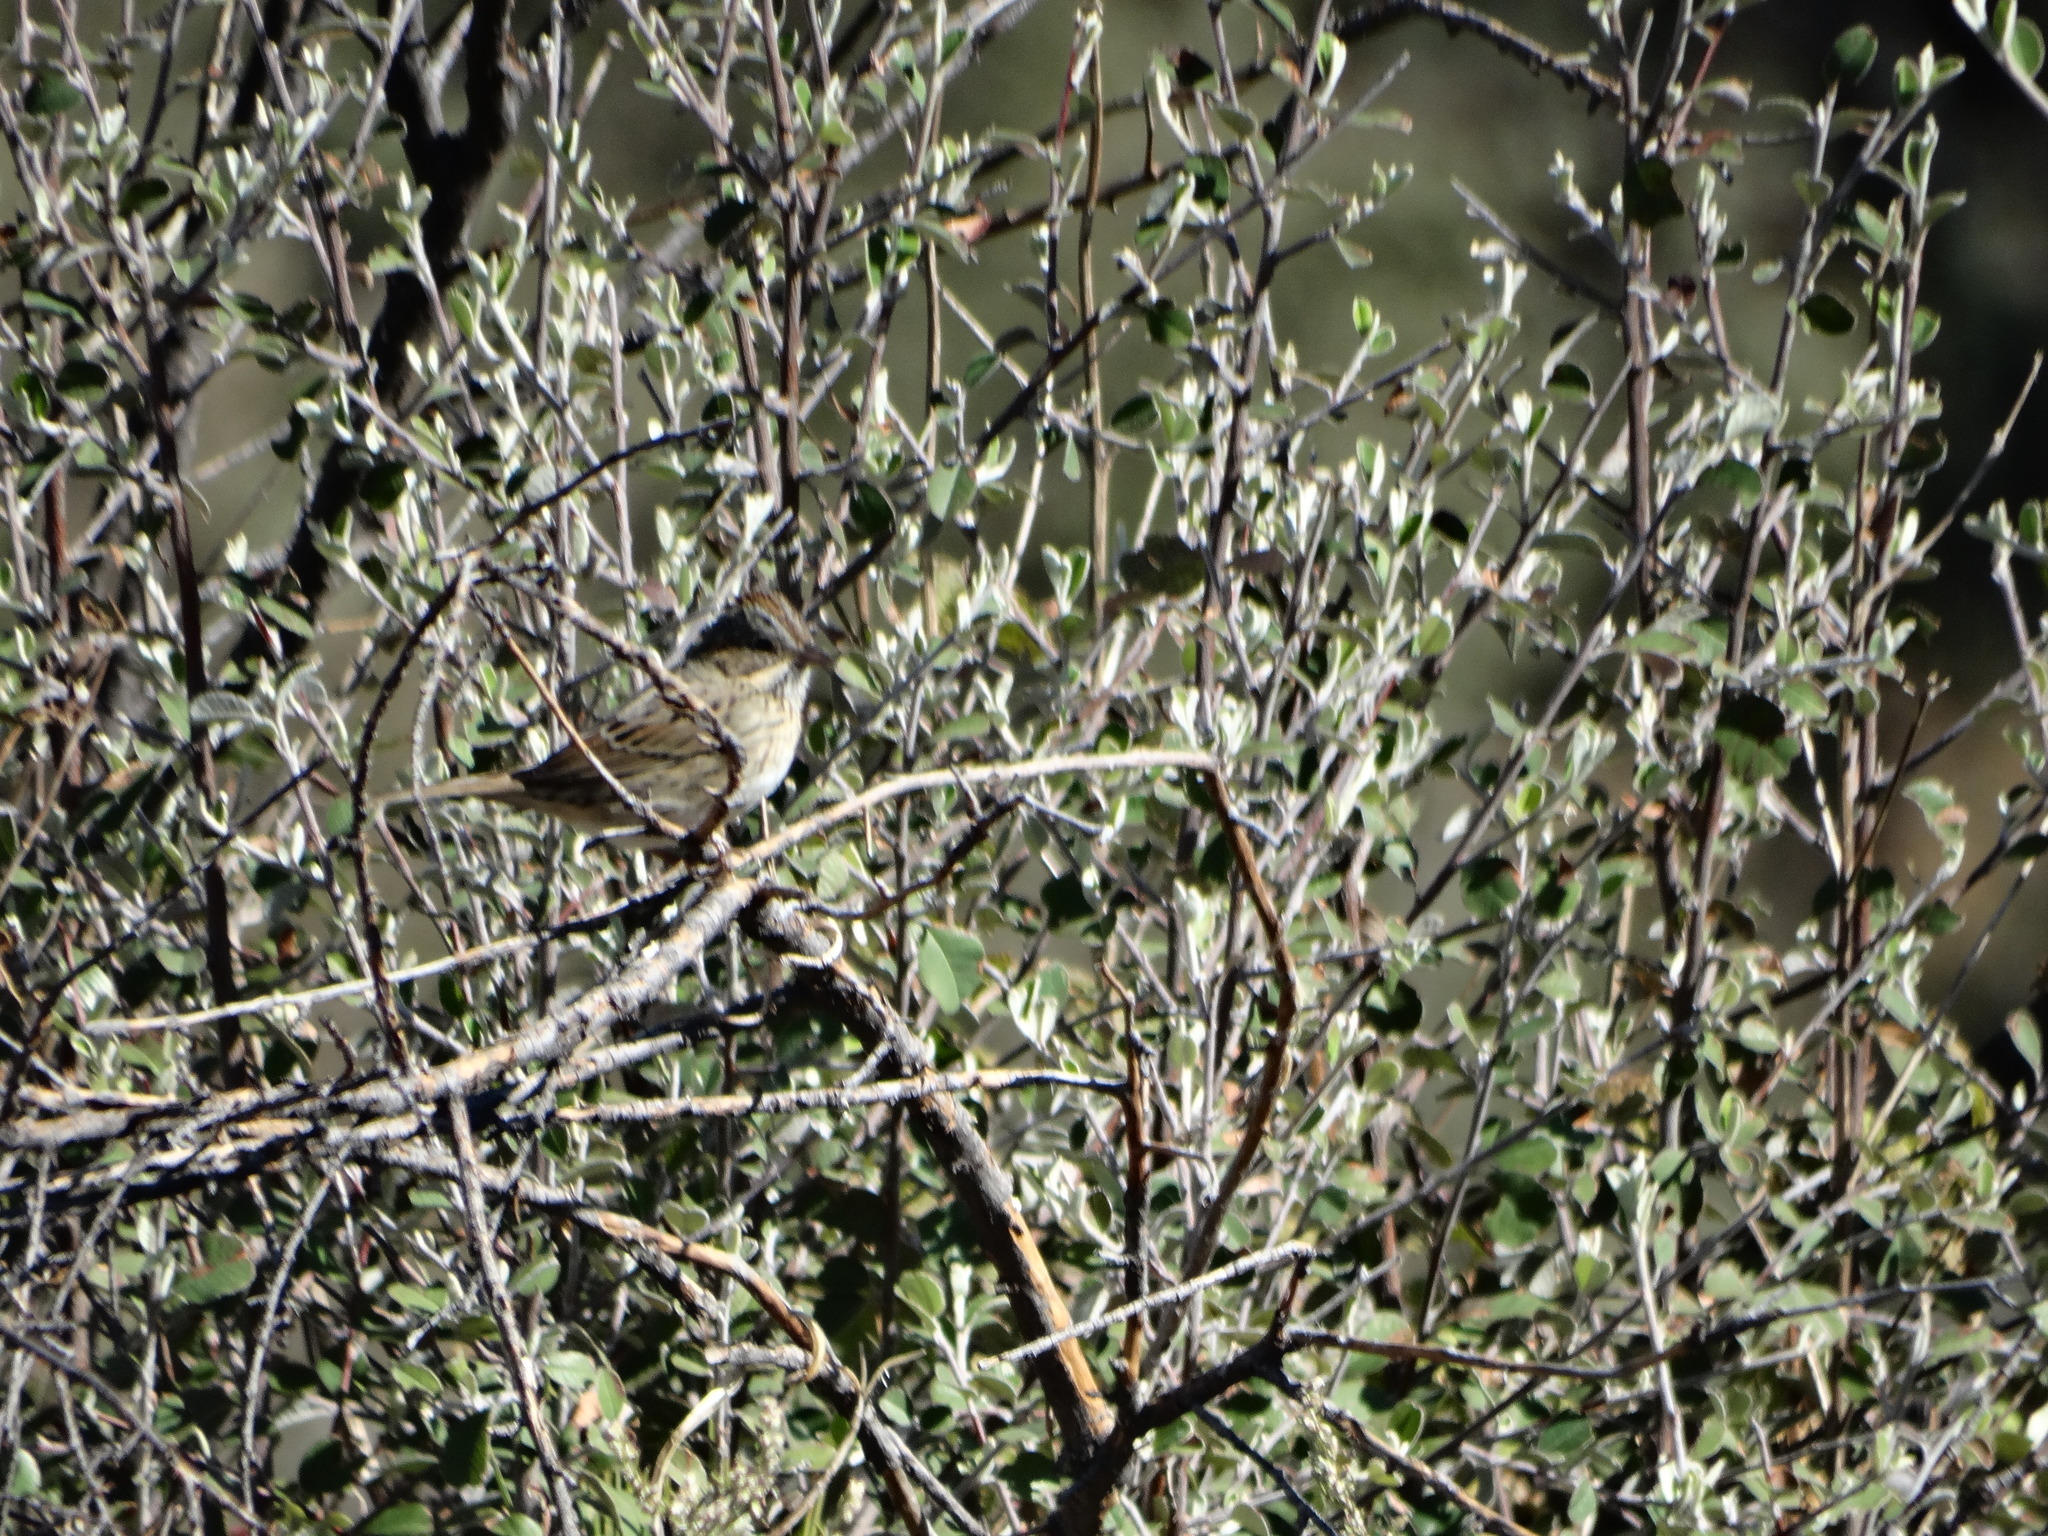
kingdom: Animalia
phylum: Chordata
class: Aves
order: Passeriformes
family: Passerellidae
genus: Melospiza
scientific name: Melospiza lincolnii
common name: Lincoln's sparrow
